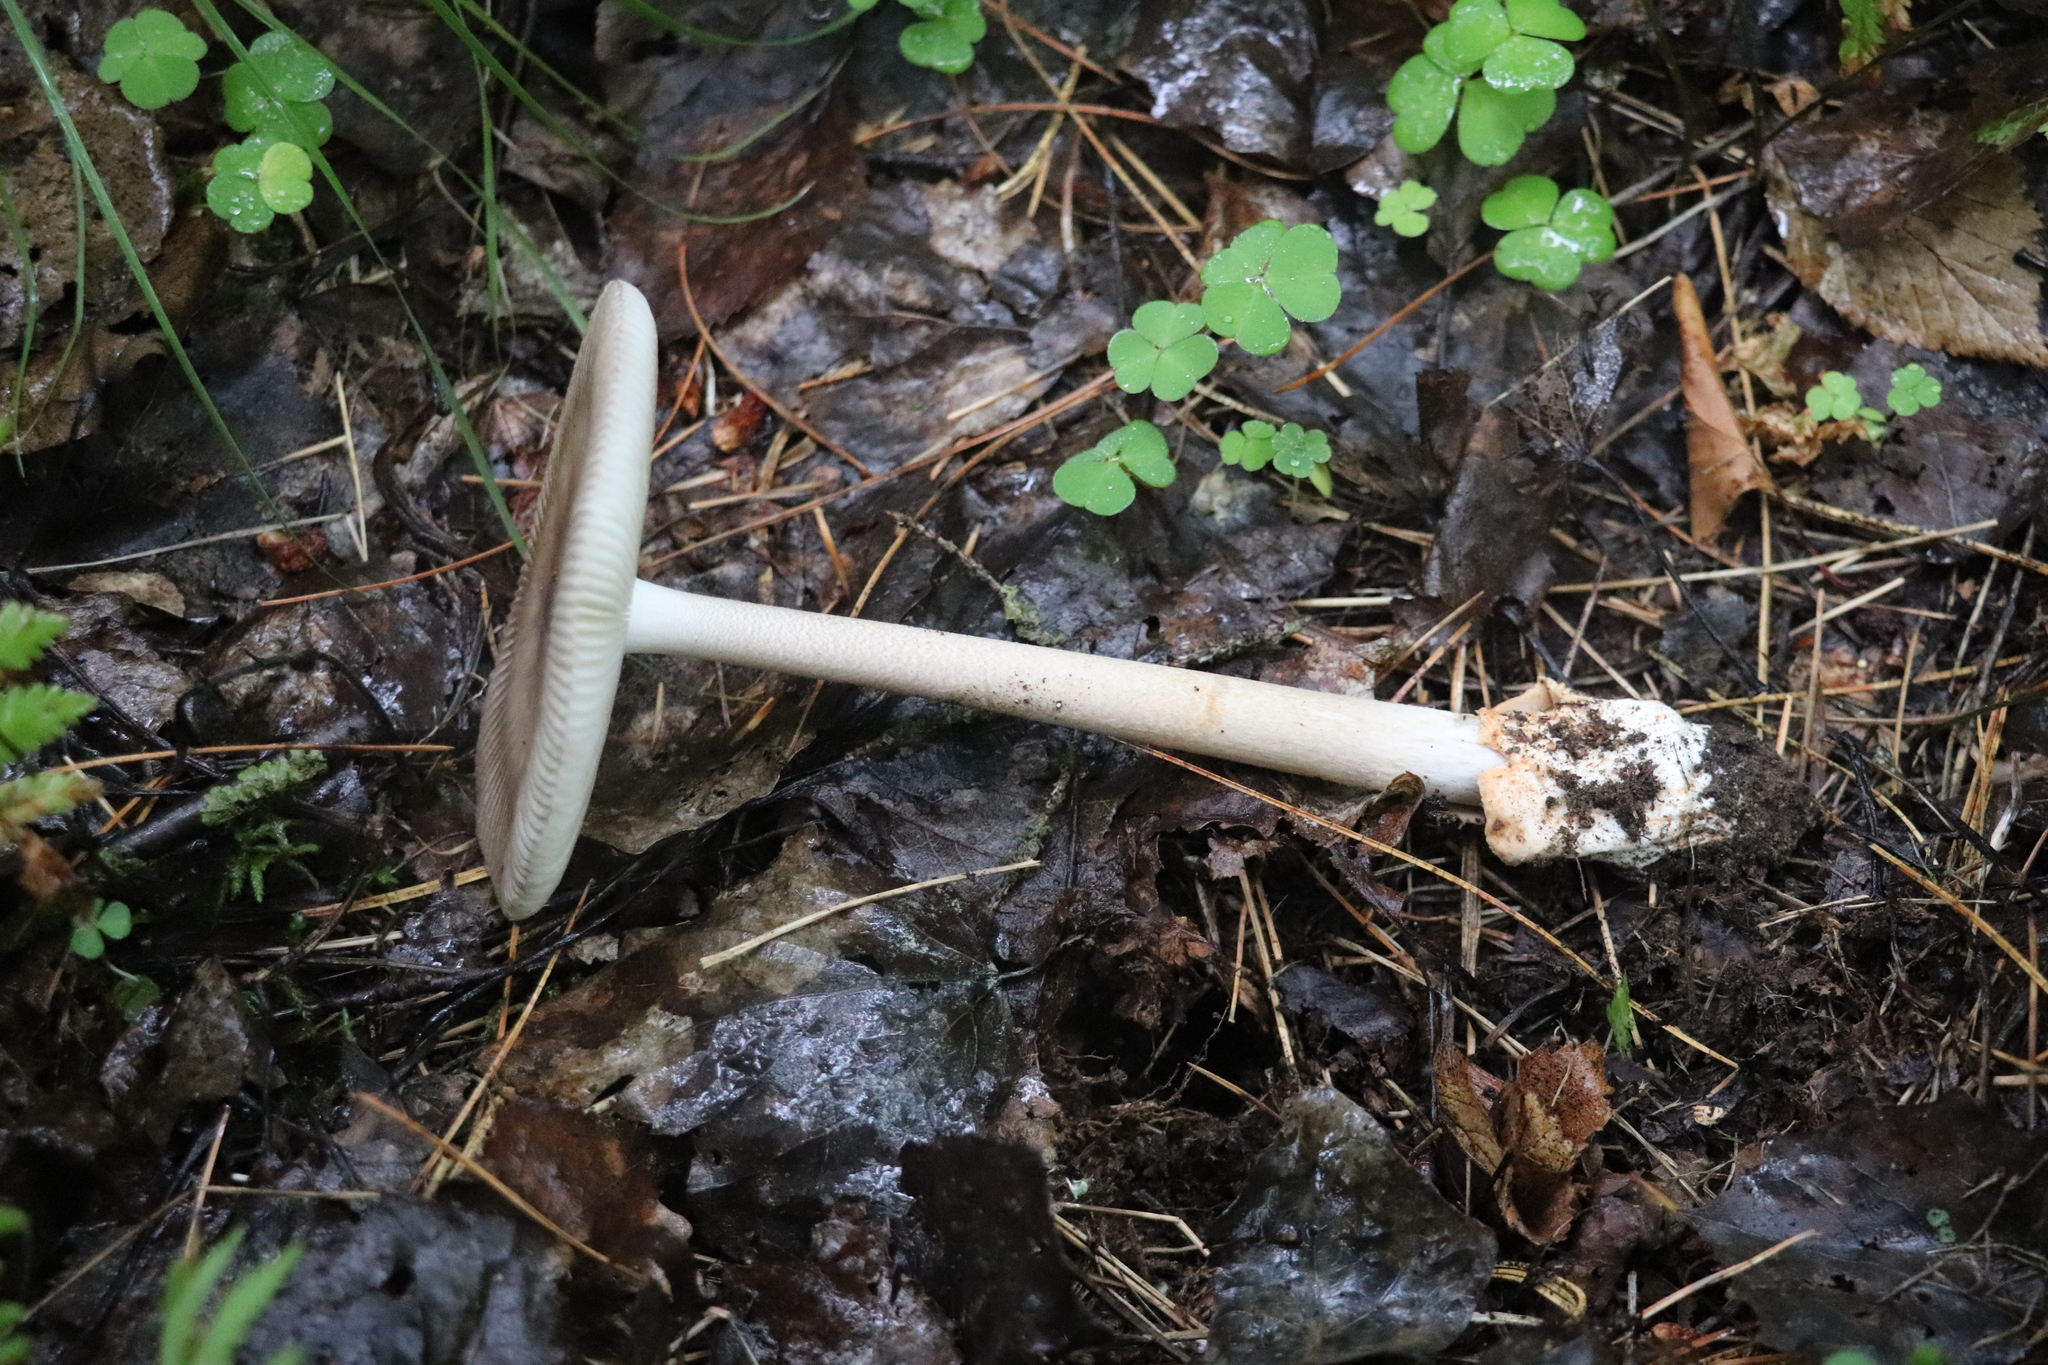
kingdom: Fungi
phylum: Basidiomycota
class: Agaricomycetes
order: Agaricales
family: Amanitaceae
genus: Amanita
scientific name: Amanita battarrae
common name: Banded amanita
